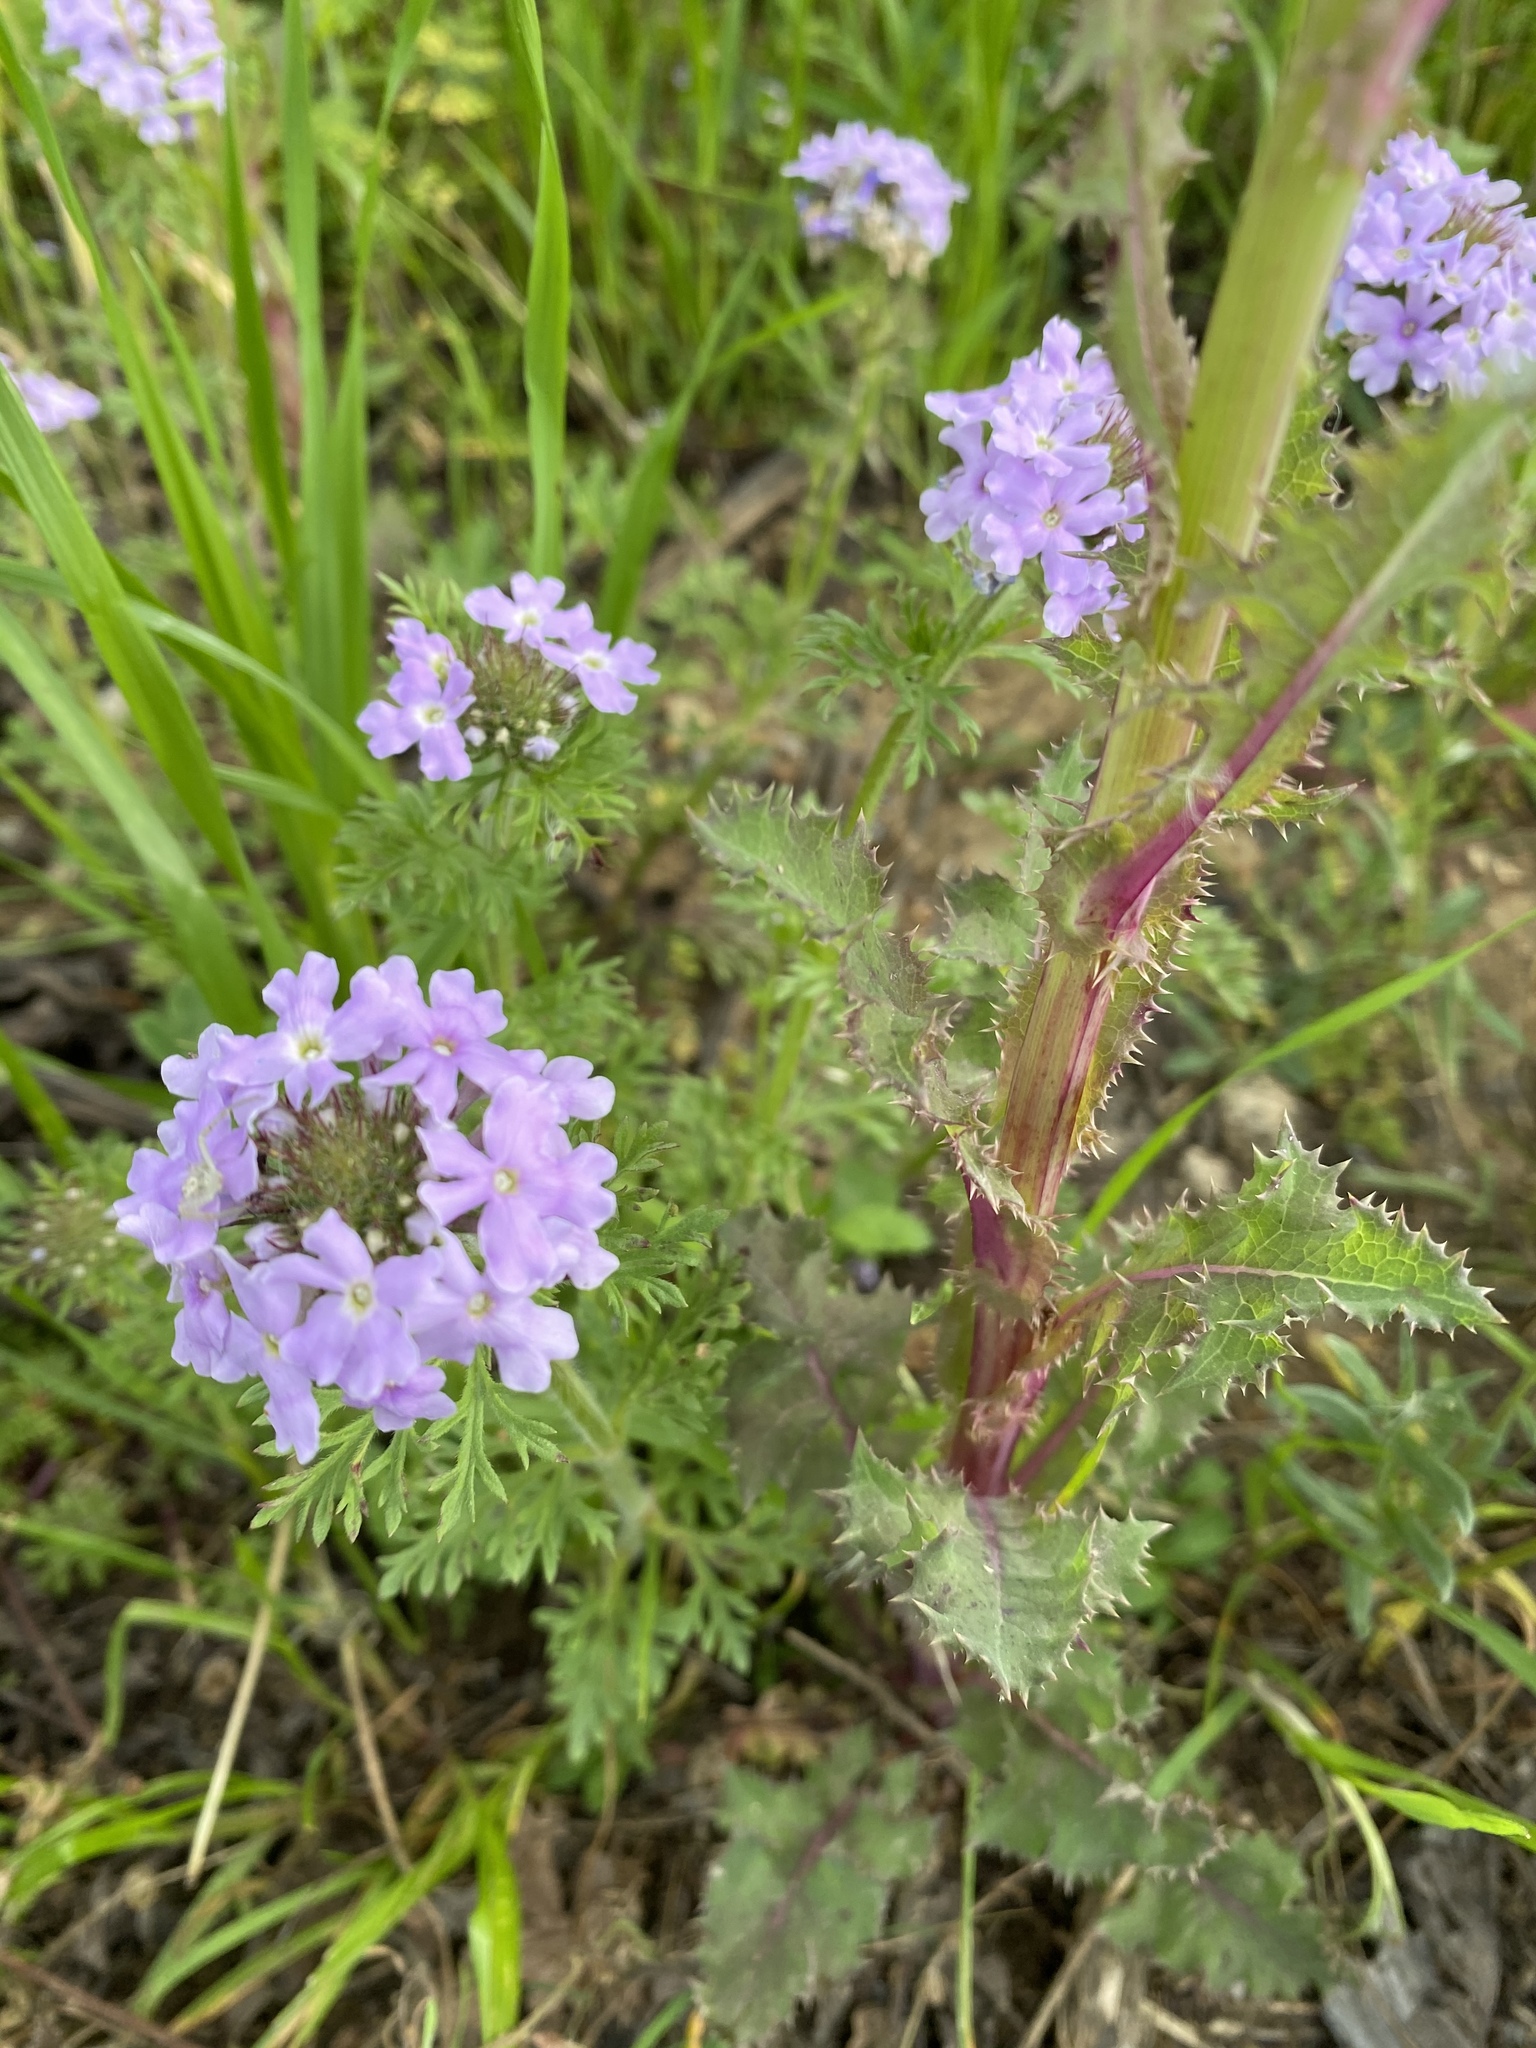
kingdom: Plantae
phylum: Tracheophyta
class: Magnoliopsida
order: Lamiales
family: Verbenaceae
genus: Verbena
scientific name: Verbena bipinnatifida
